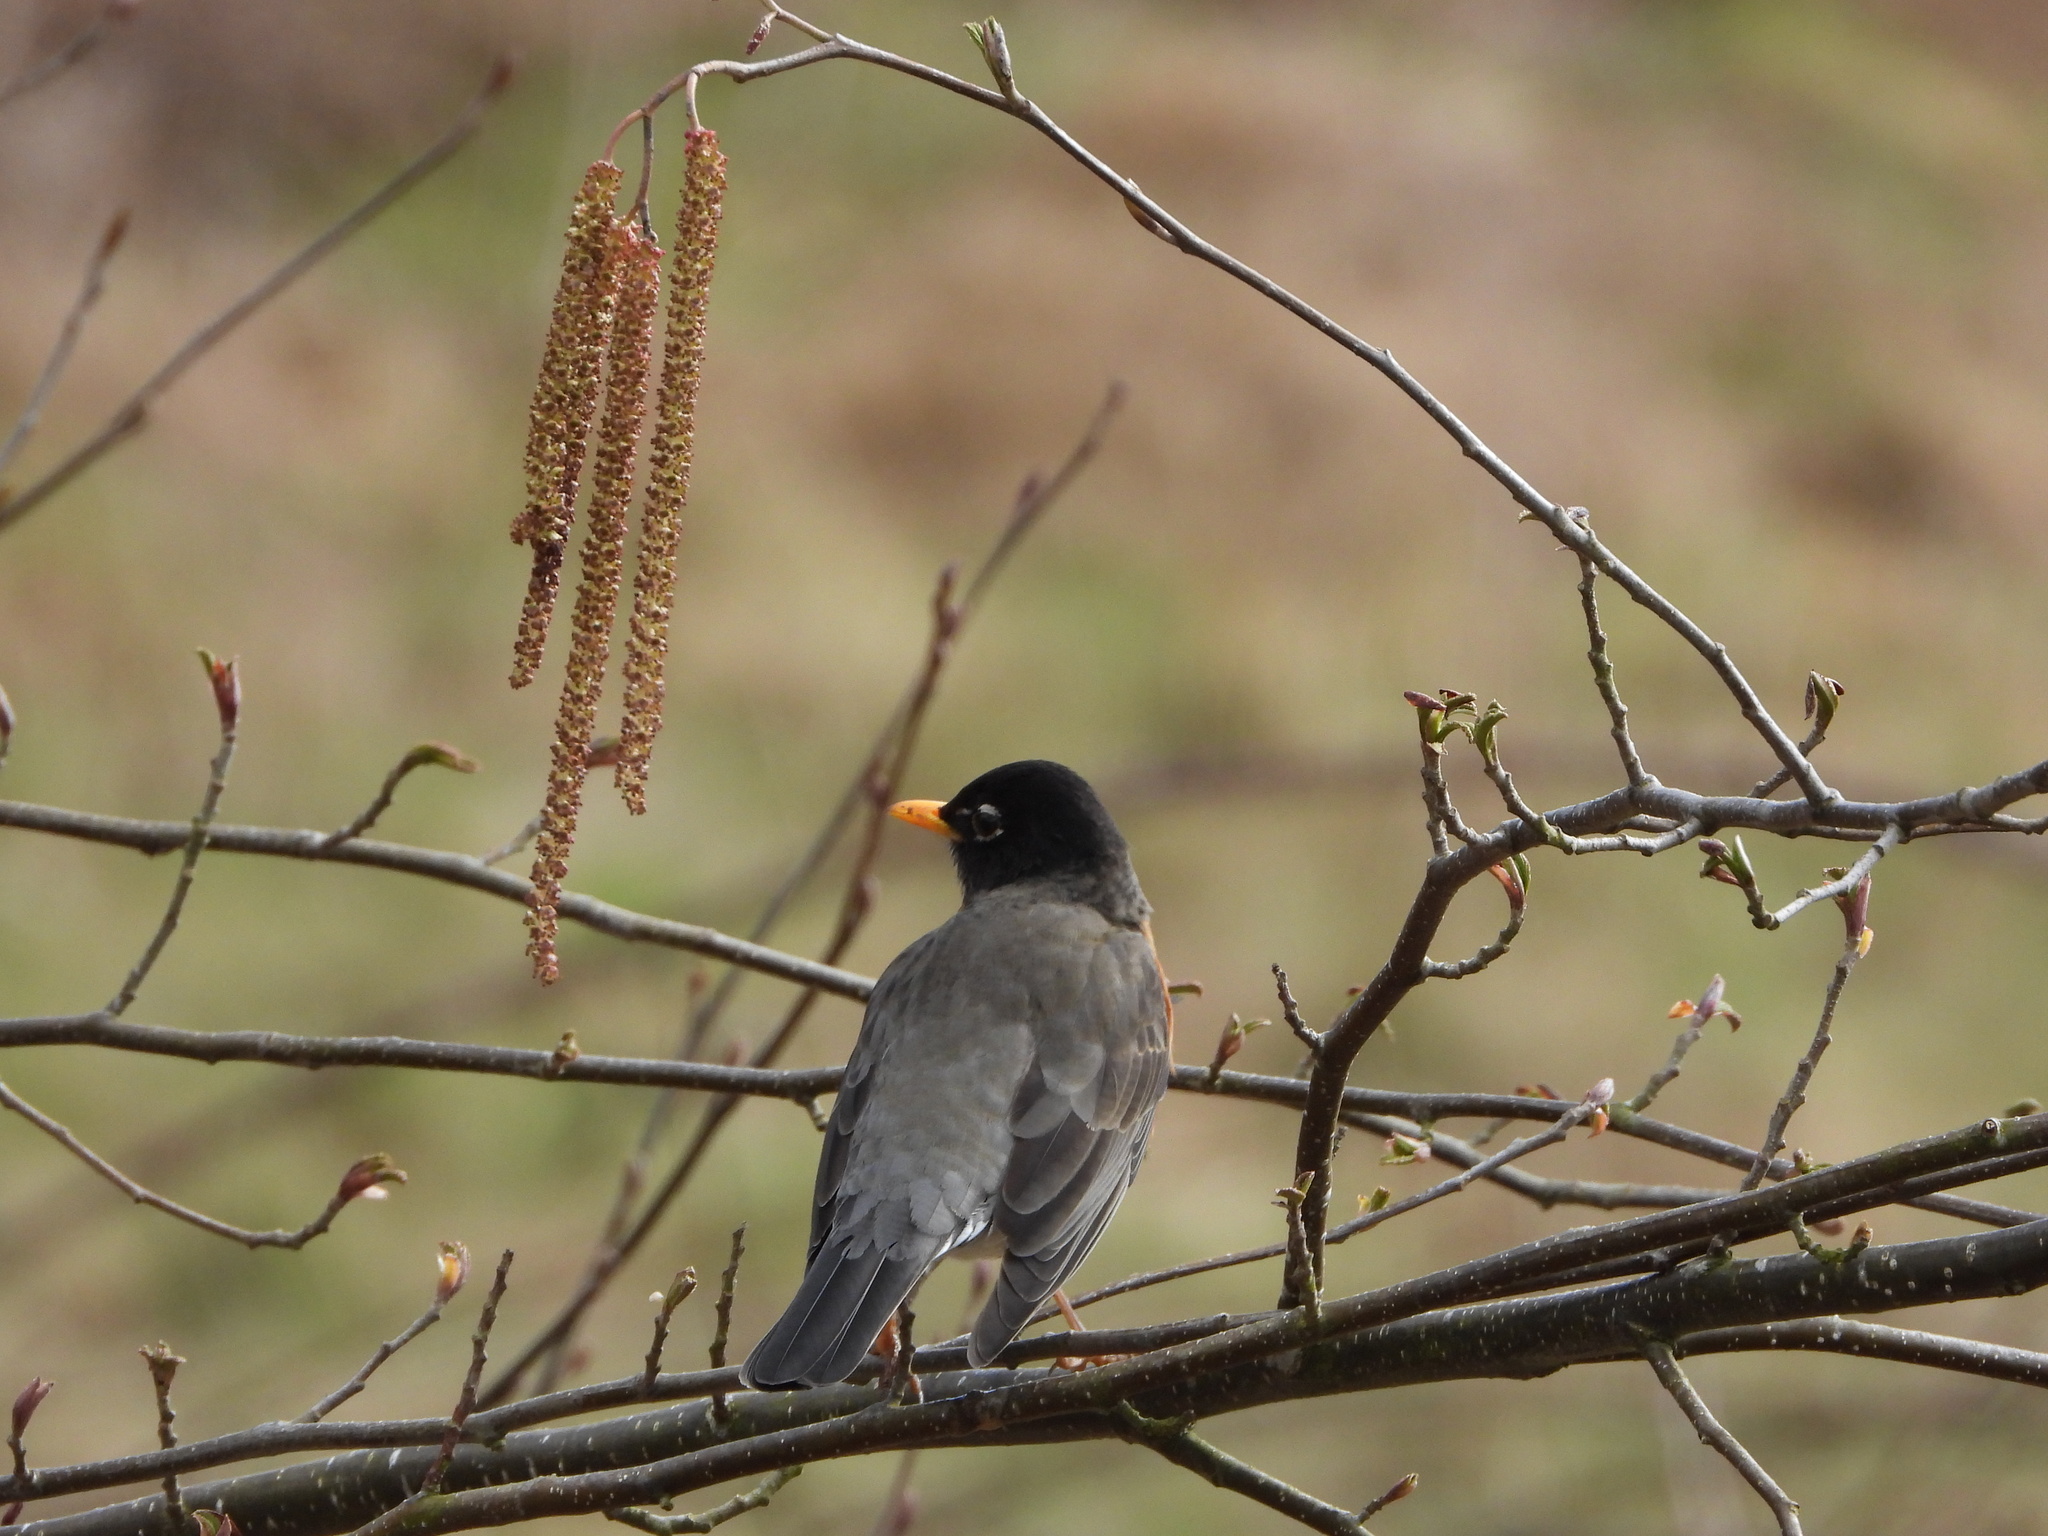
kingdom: Animalia
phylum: Chordata
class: Aves
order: Passeriformes
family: Turdidae
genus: Turdus
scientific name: Turdus migratorius
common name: American robin
